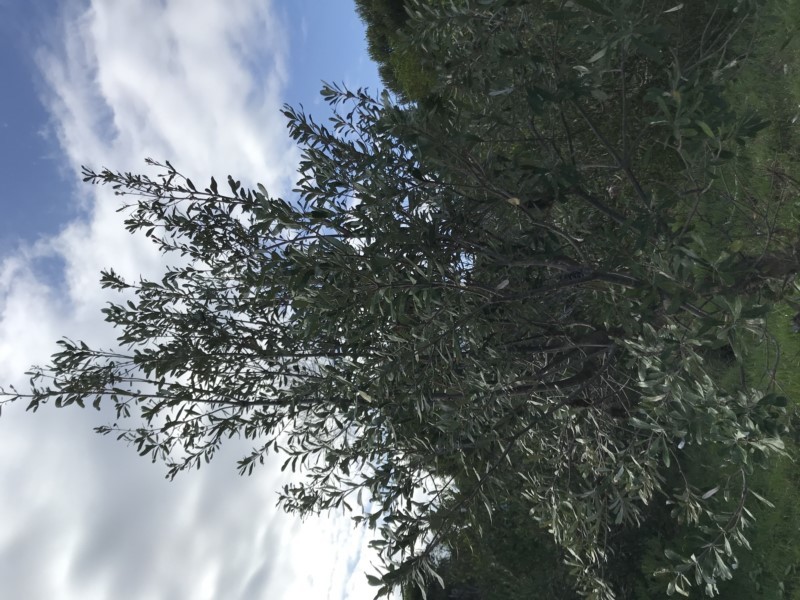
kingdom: Plantae
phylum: Tracheophyta
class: Magnoliopsida
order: Proteales
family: Proteaceae
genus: Banksia
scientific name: Banksia integrifolia
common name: White-honeysuckle
